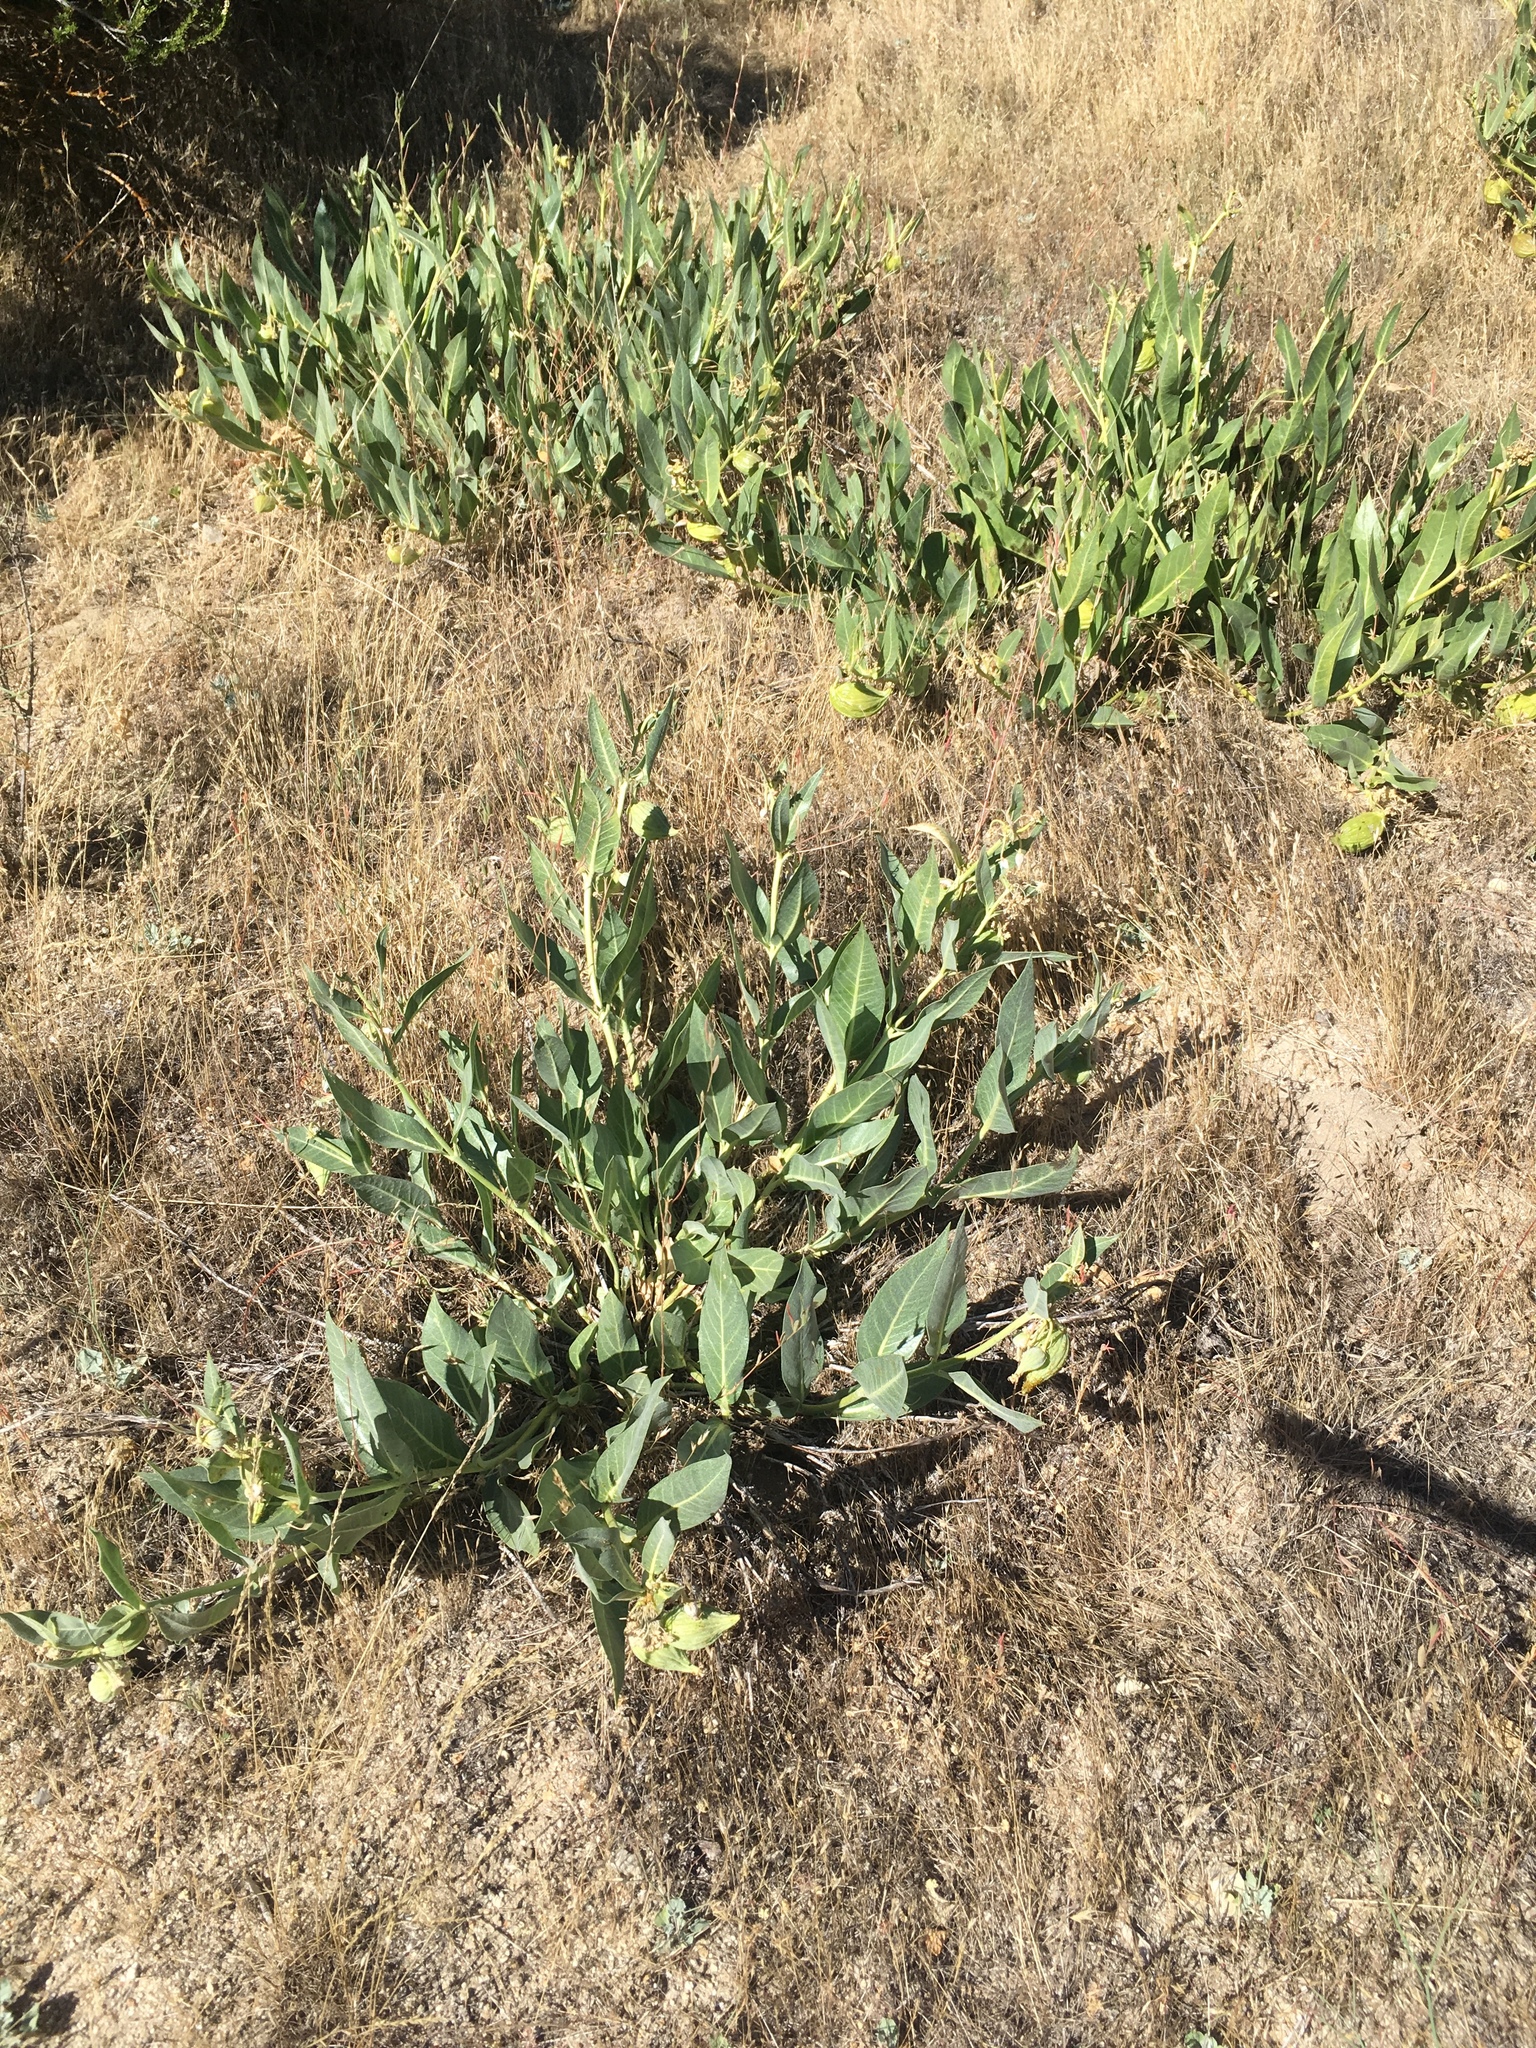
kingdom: Plantae
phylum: Tracheophyta
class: Magnoliopsida
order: Gentianales
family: Apocynaceae
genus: Asclepias
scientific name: Asclepias vestita
